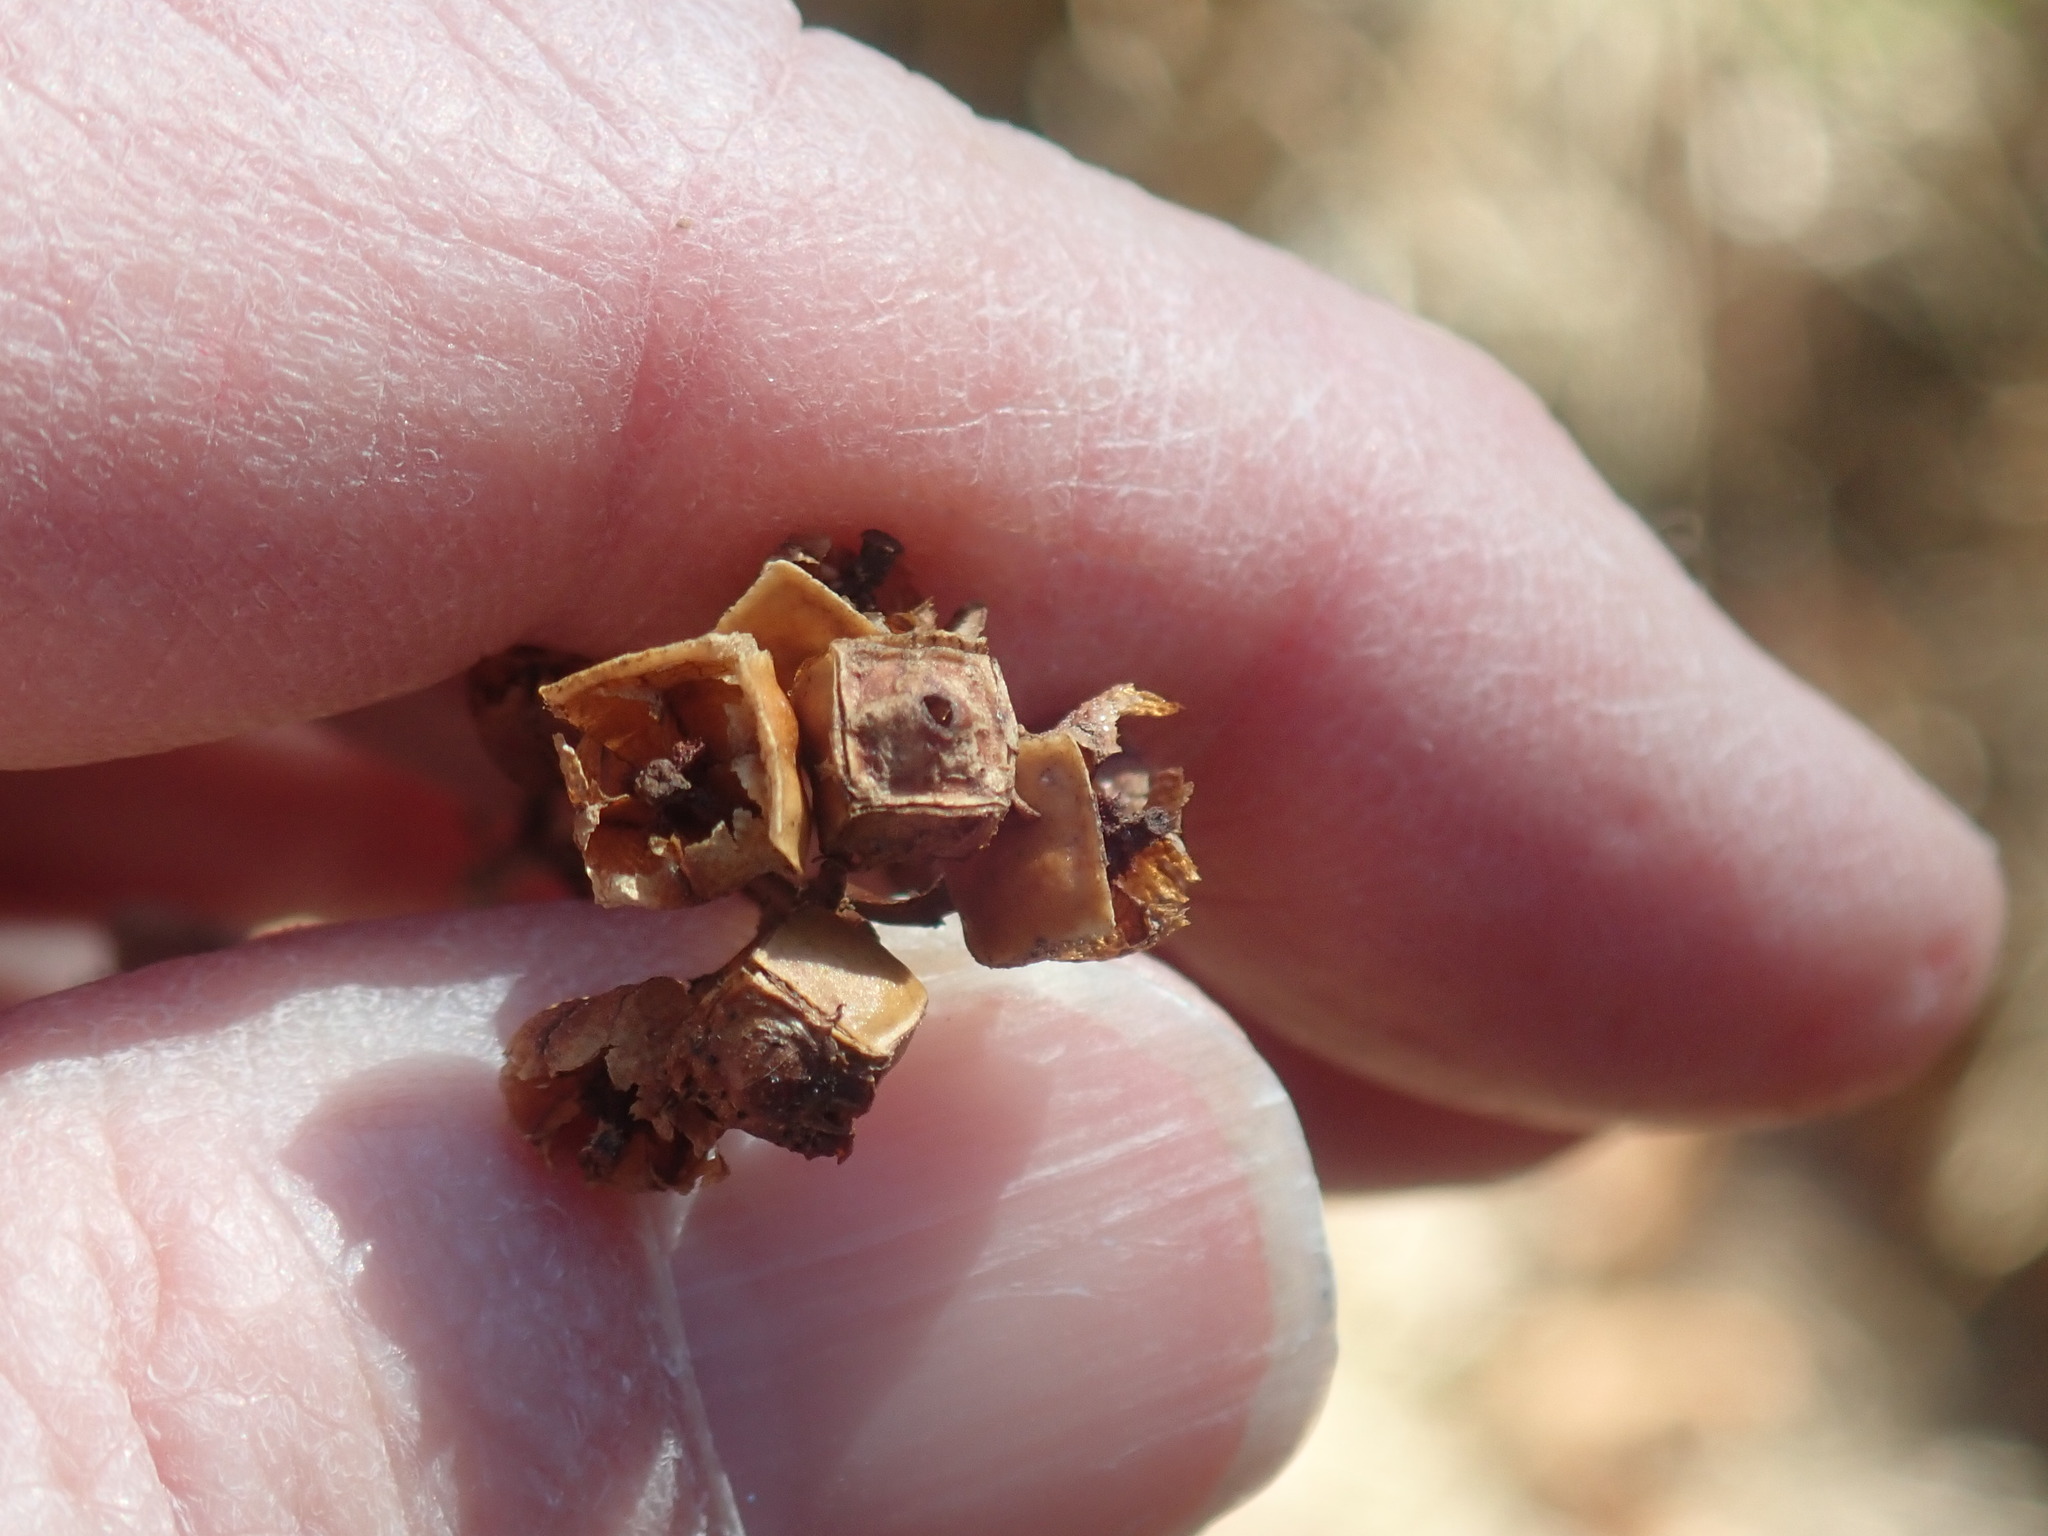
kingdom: Plantae
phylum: Tracheophyta
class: Magnoliopsida
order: Myrtales
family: Onagraceae
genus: Ludwigia
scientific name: Ludwigia alternifolia
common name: Rattlebox
